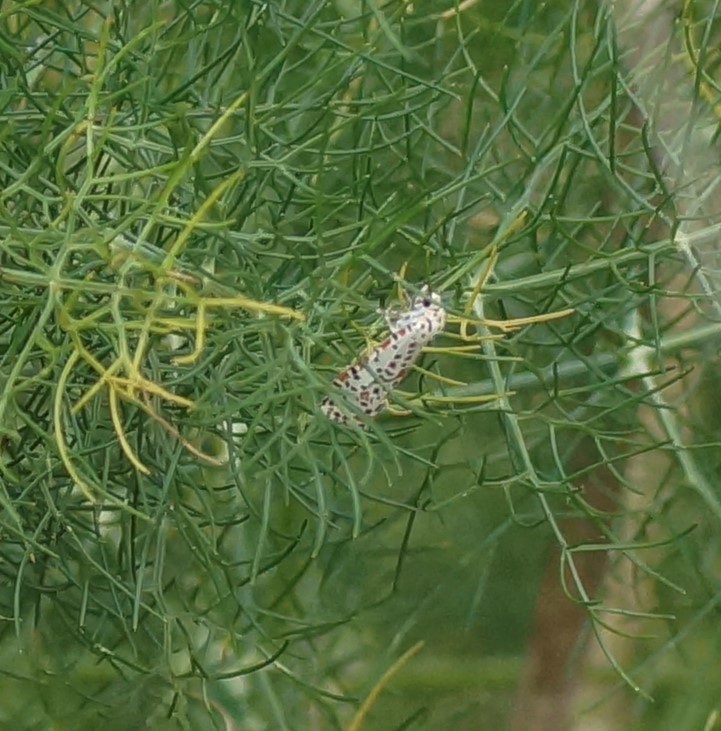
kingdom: Animalia
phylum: Arthropoda
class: Insecta
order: Lepidoptera
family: Erebidae
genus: Utetheisa
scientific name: Utetheisa pulchelloides
